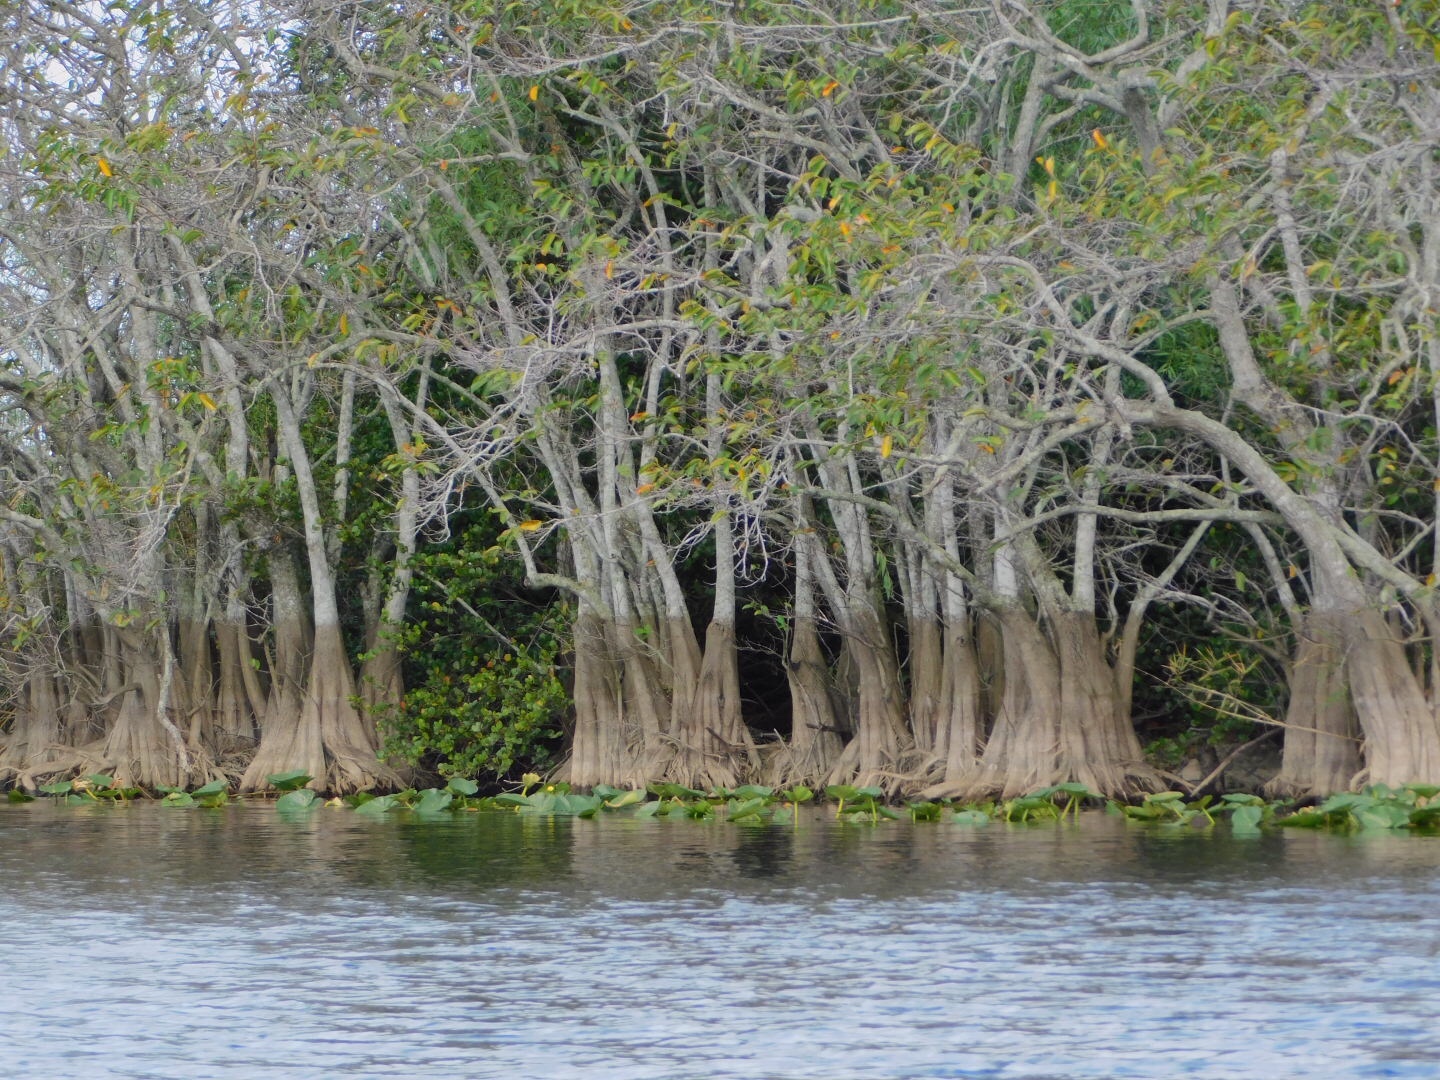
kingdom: Plantae
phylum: Tracheophyta
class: Magnoliopsida
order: Magnoliales
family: Annonaceae
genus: Annona
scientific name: Annona glabra
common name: Monkey apple
